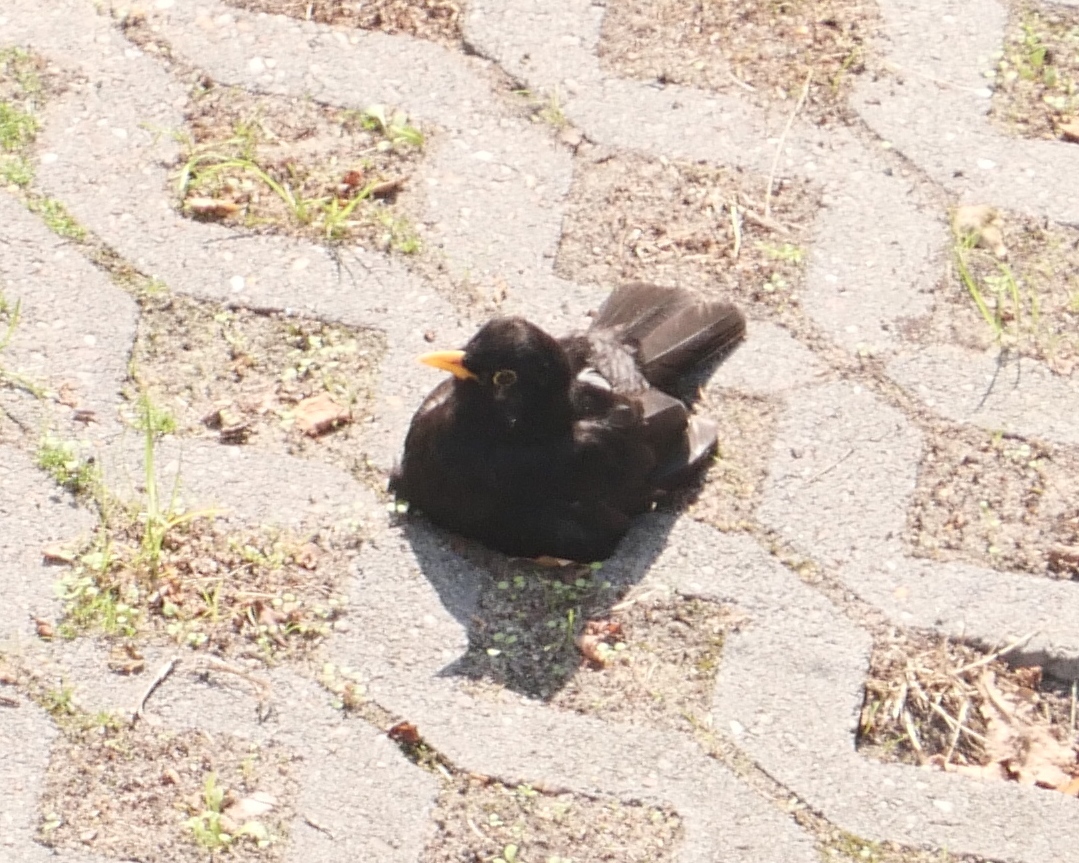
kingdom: Animalia
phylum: Chordata
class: Aves
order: Passeriformes
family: Turdidae
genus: Turdus
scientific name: Turdus merula
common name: Common blackbird
